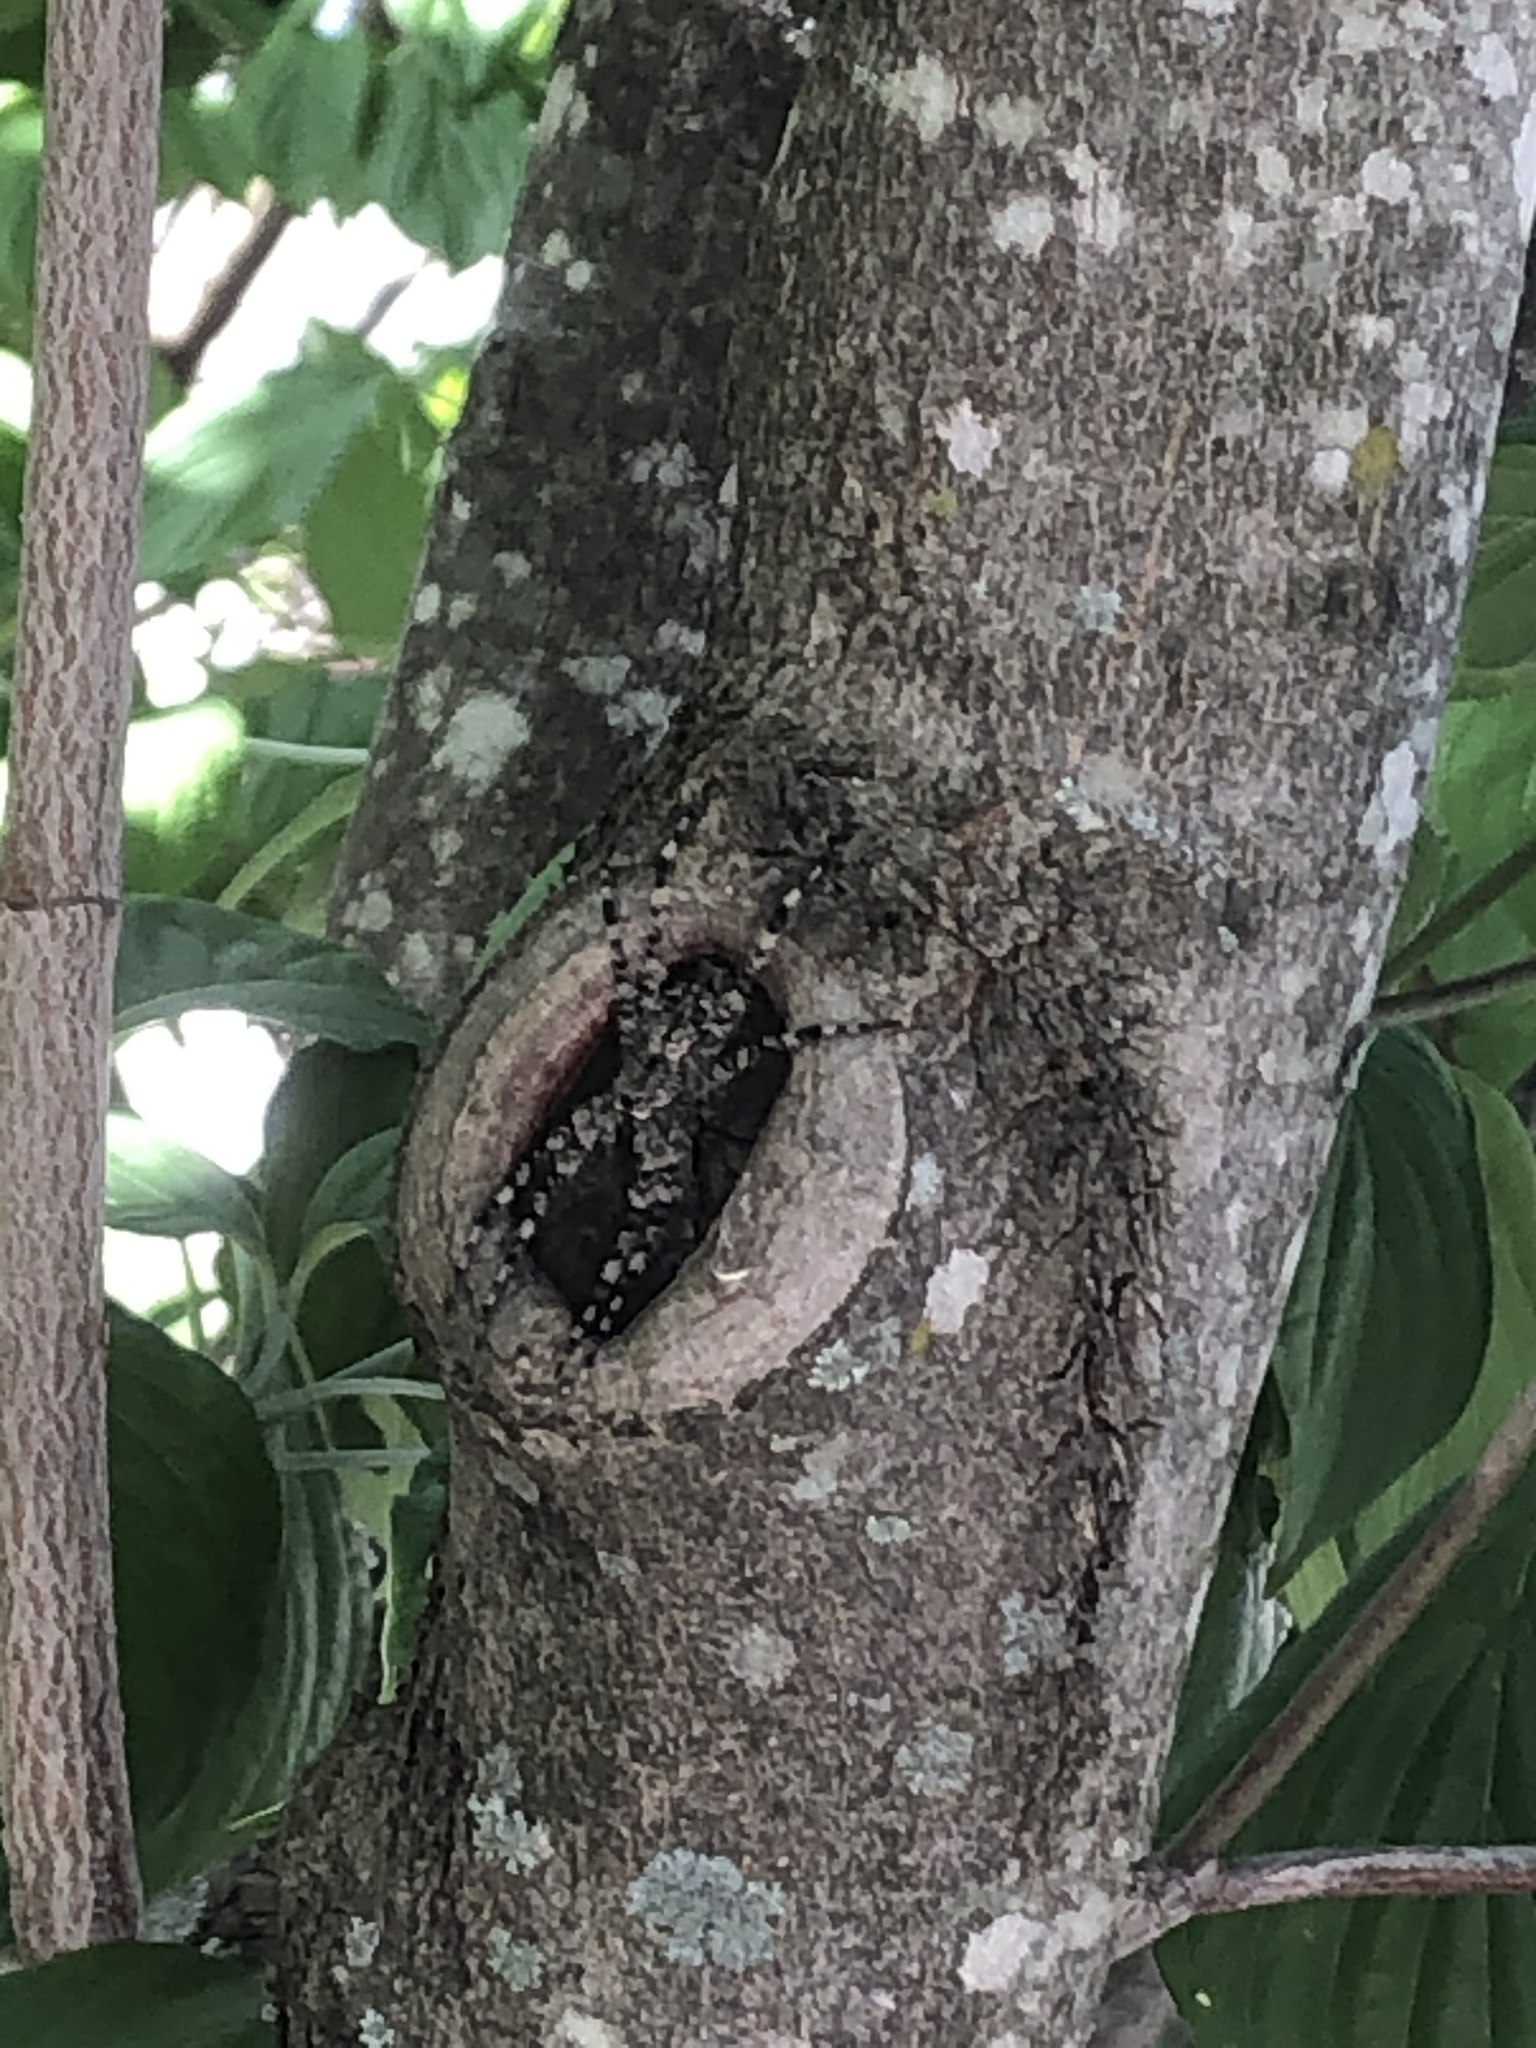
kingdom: Animalia
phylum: Arthropoda
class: Arachnida
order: Araneae
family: Pisauridae
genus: Dolomedes
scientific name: Dolomedes albineus
